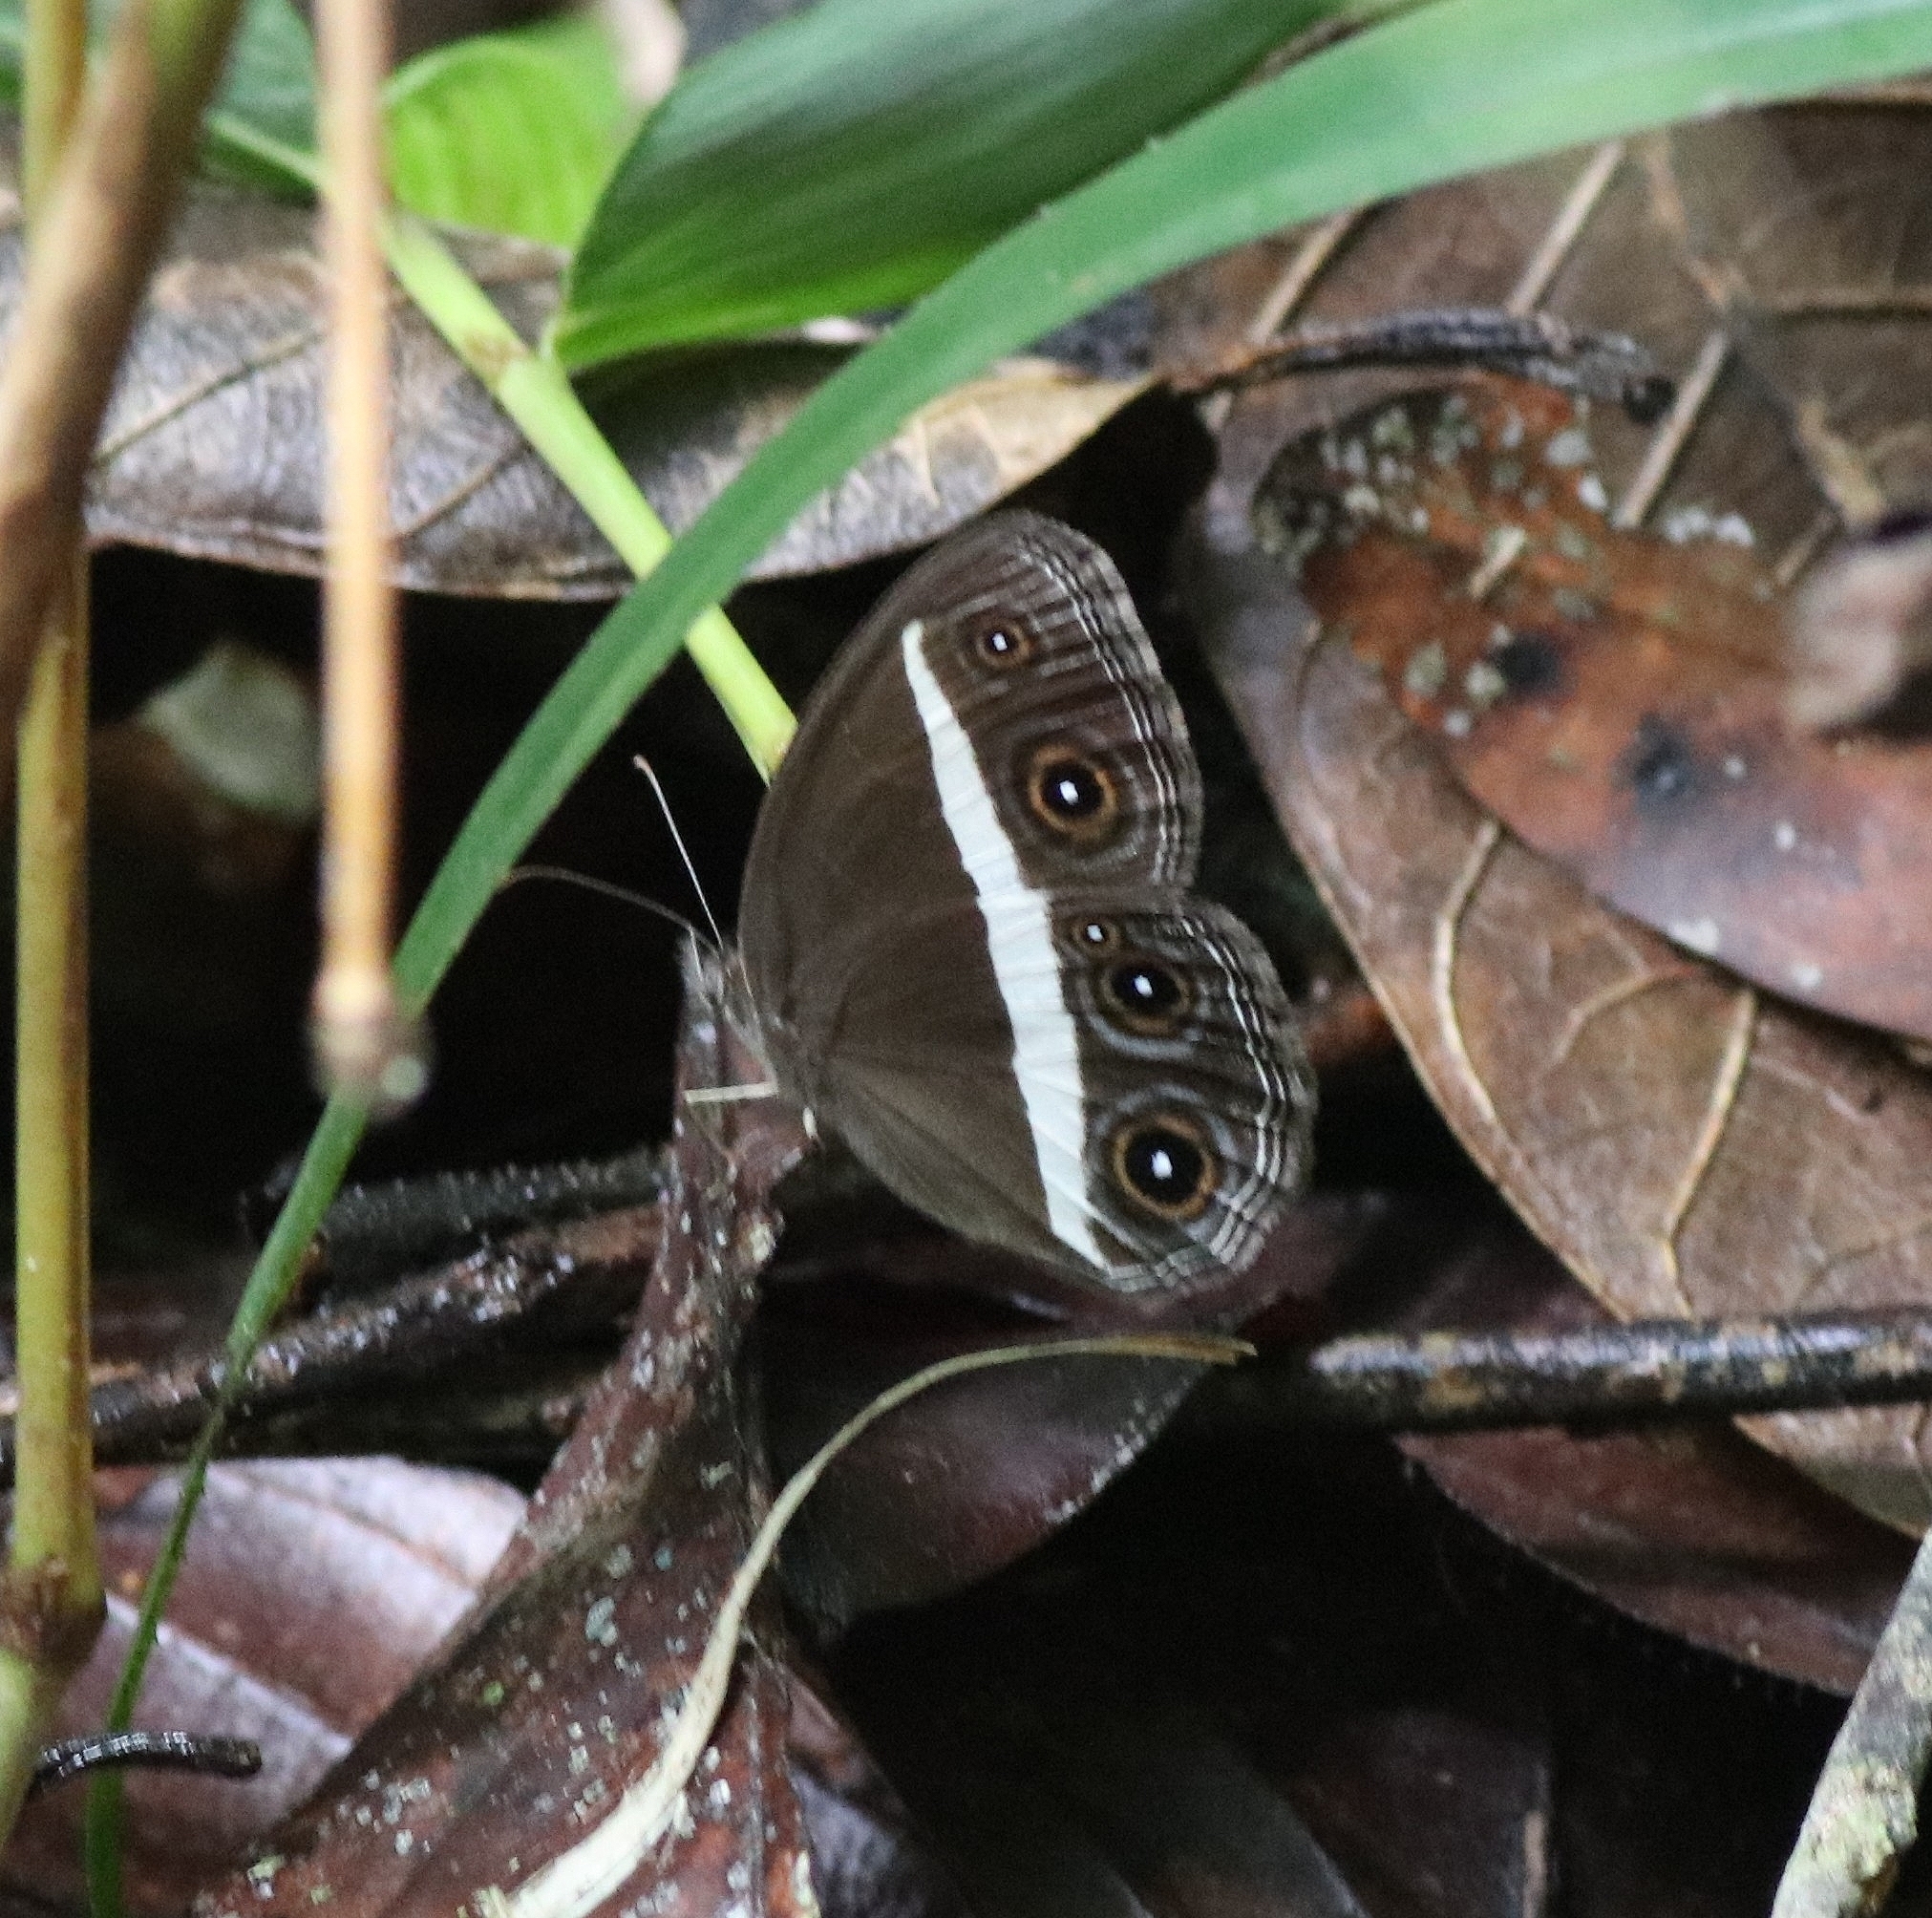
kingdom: Animalia
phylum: Arthropoda
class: Insecta
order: Lepidoptera
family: Nymphalidae
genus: Orsotriaena
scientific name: Orsotriaena medus
